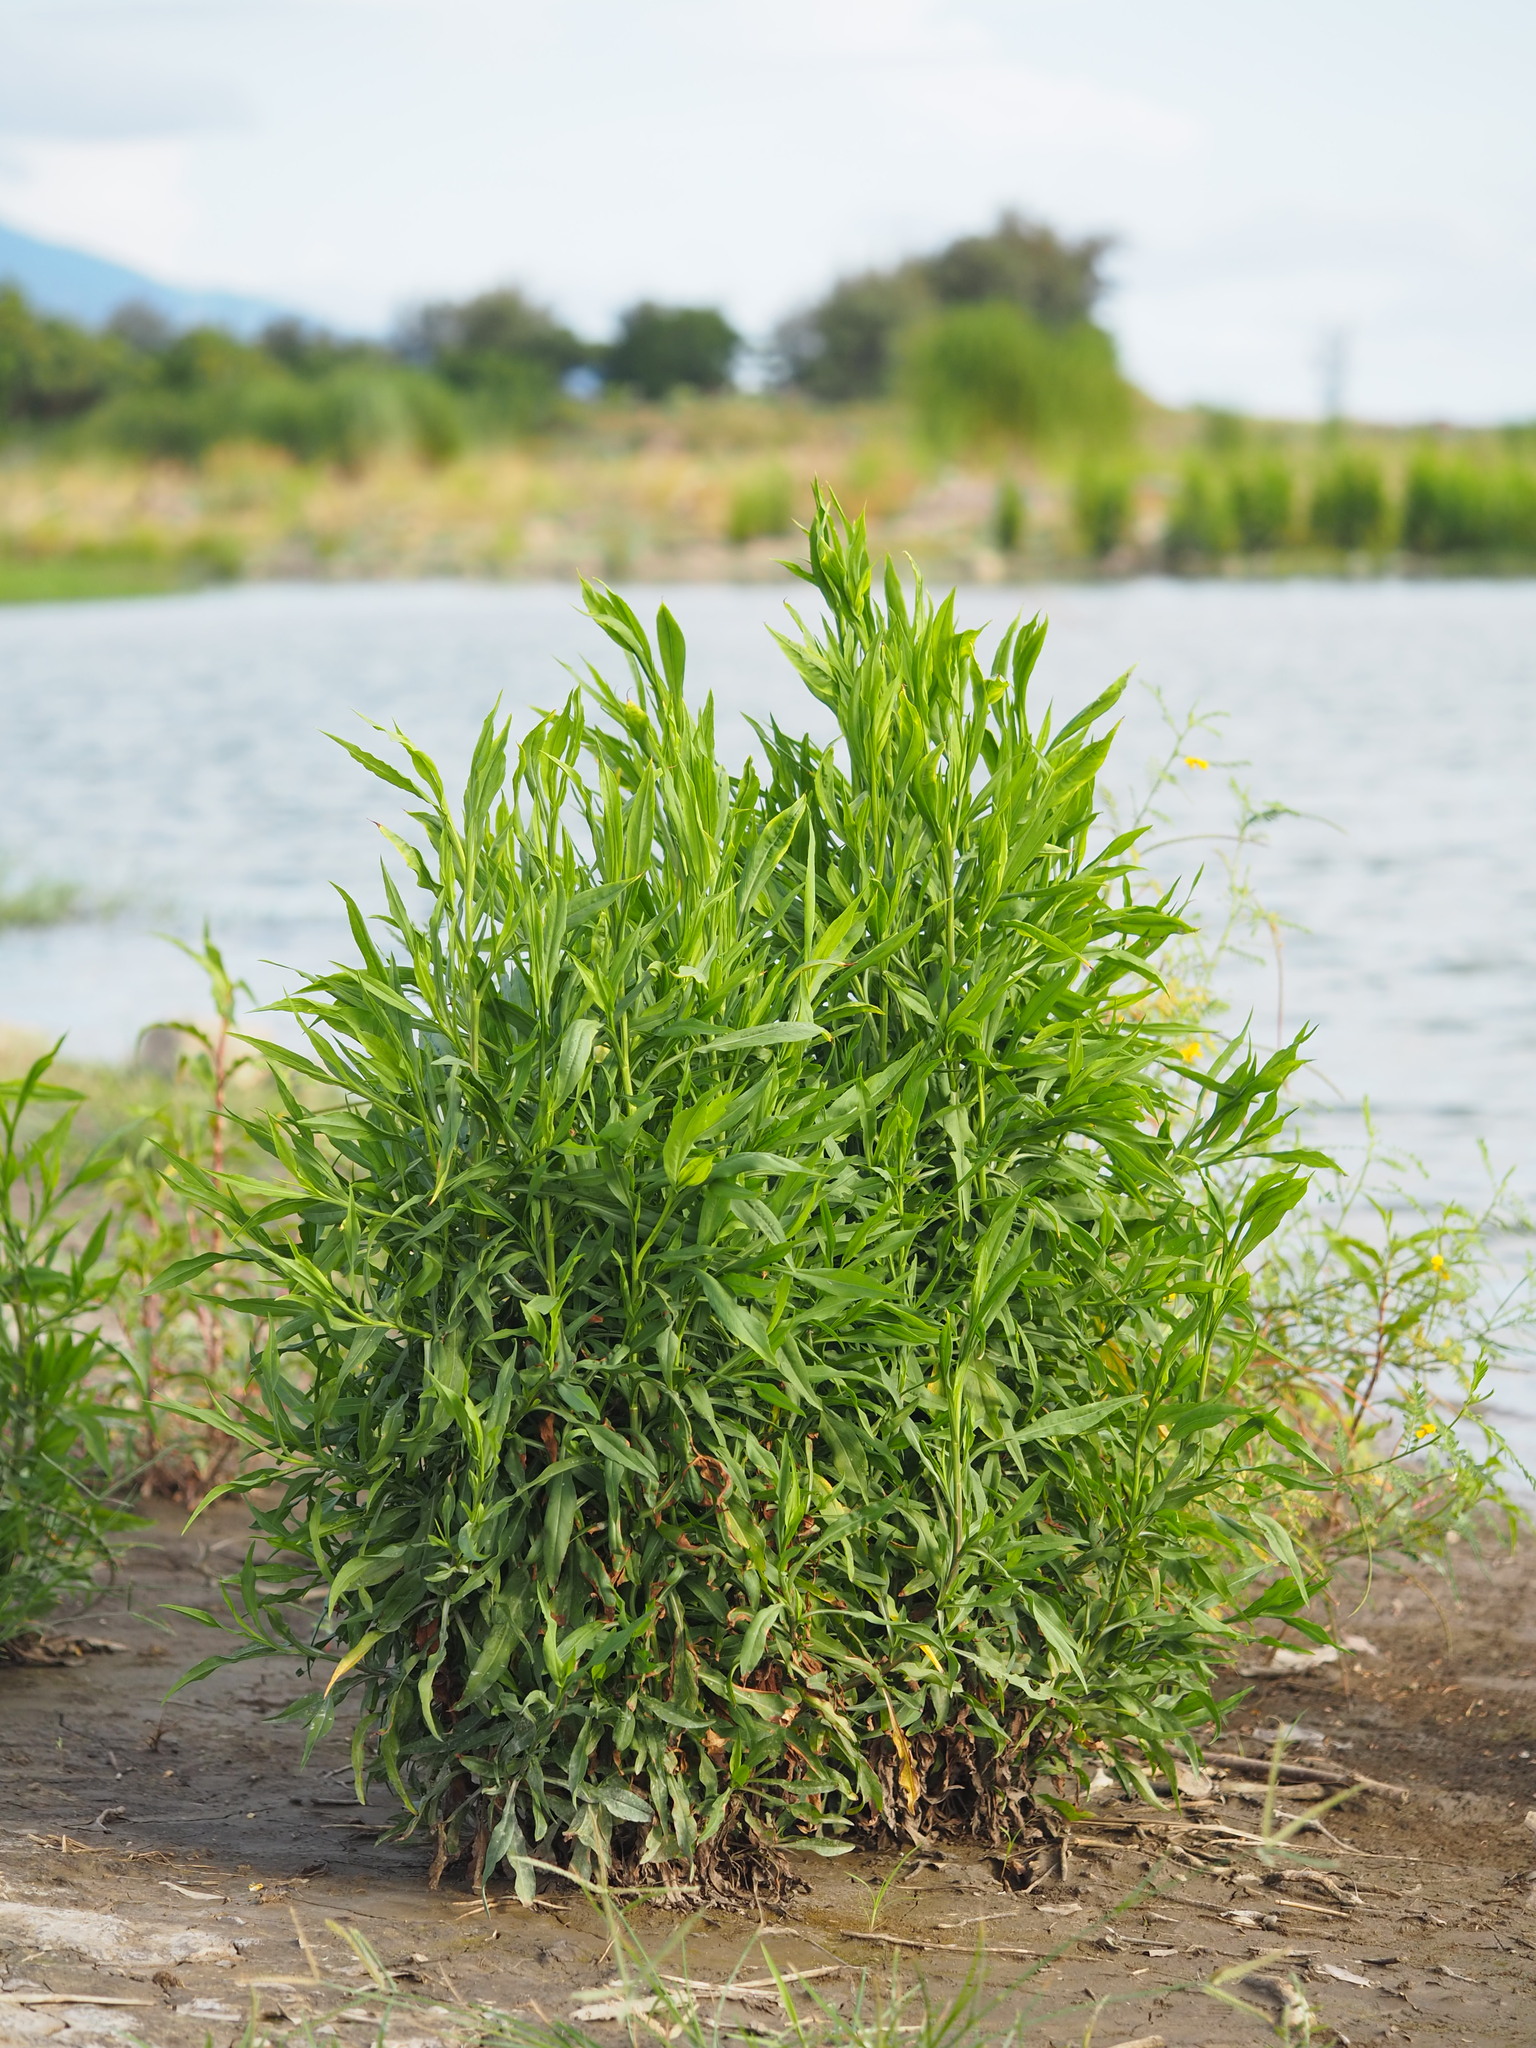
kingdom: Plantae
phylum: Tracheophyta
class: Magnoliopsida
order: Asterales
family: Asteraceae
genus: Symphyotrichum
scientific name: Symphyotrichum subulatum
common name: Annual saltmarsh aster
